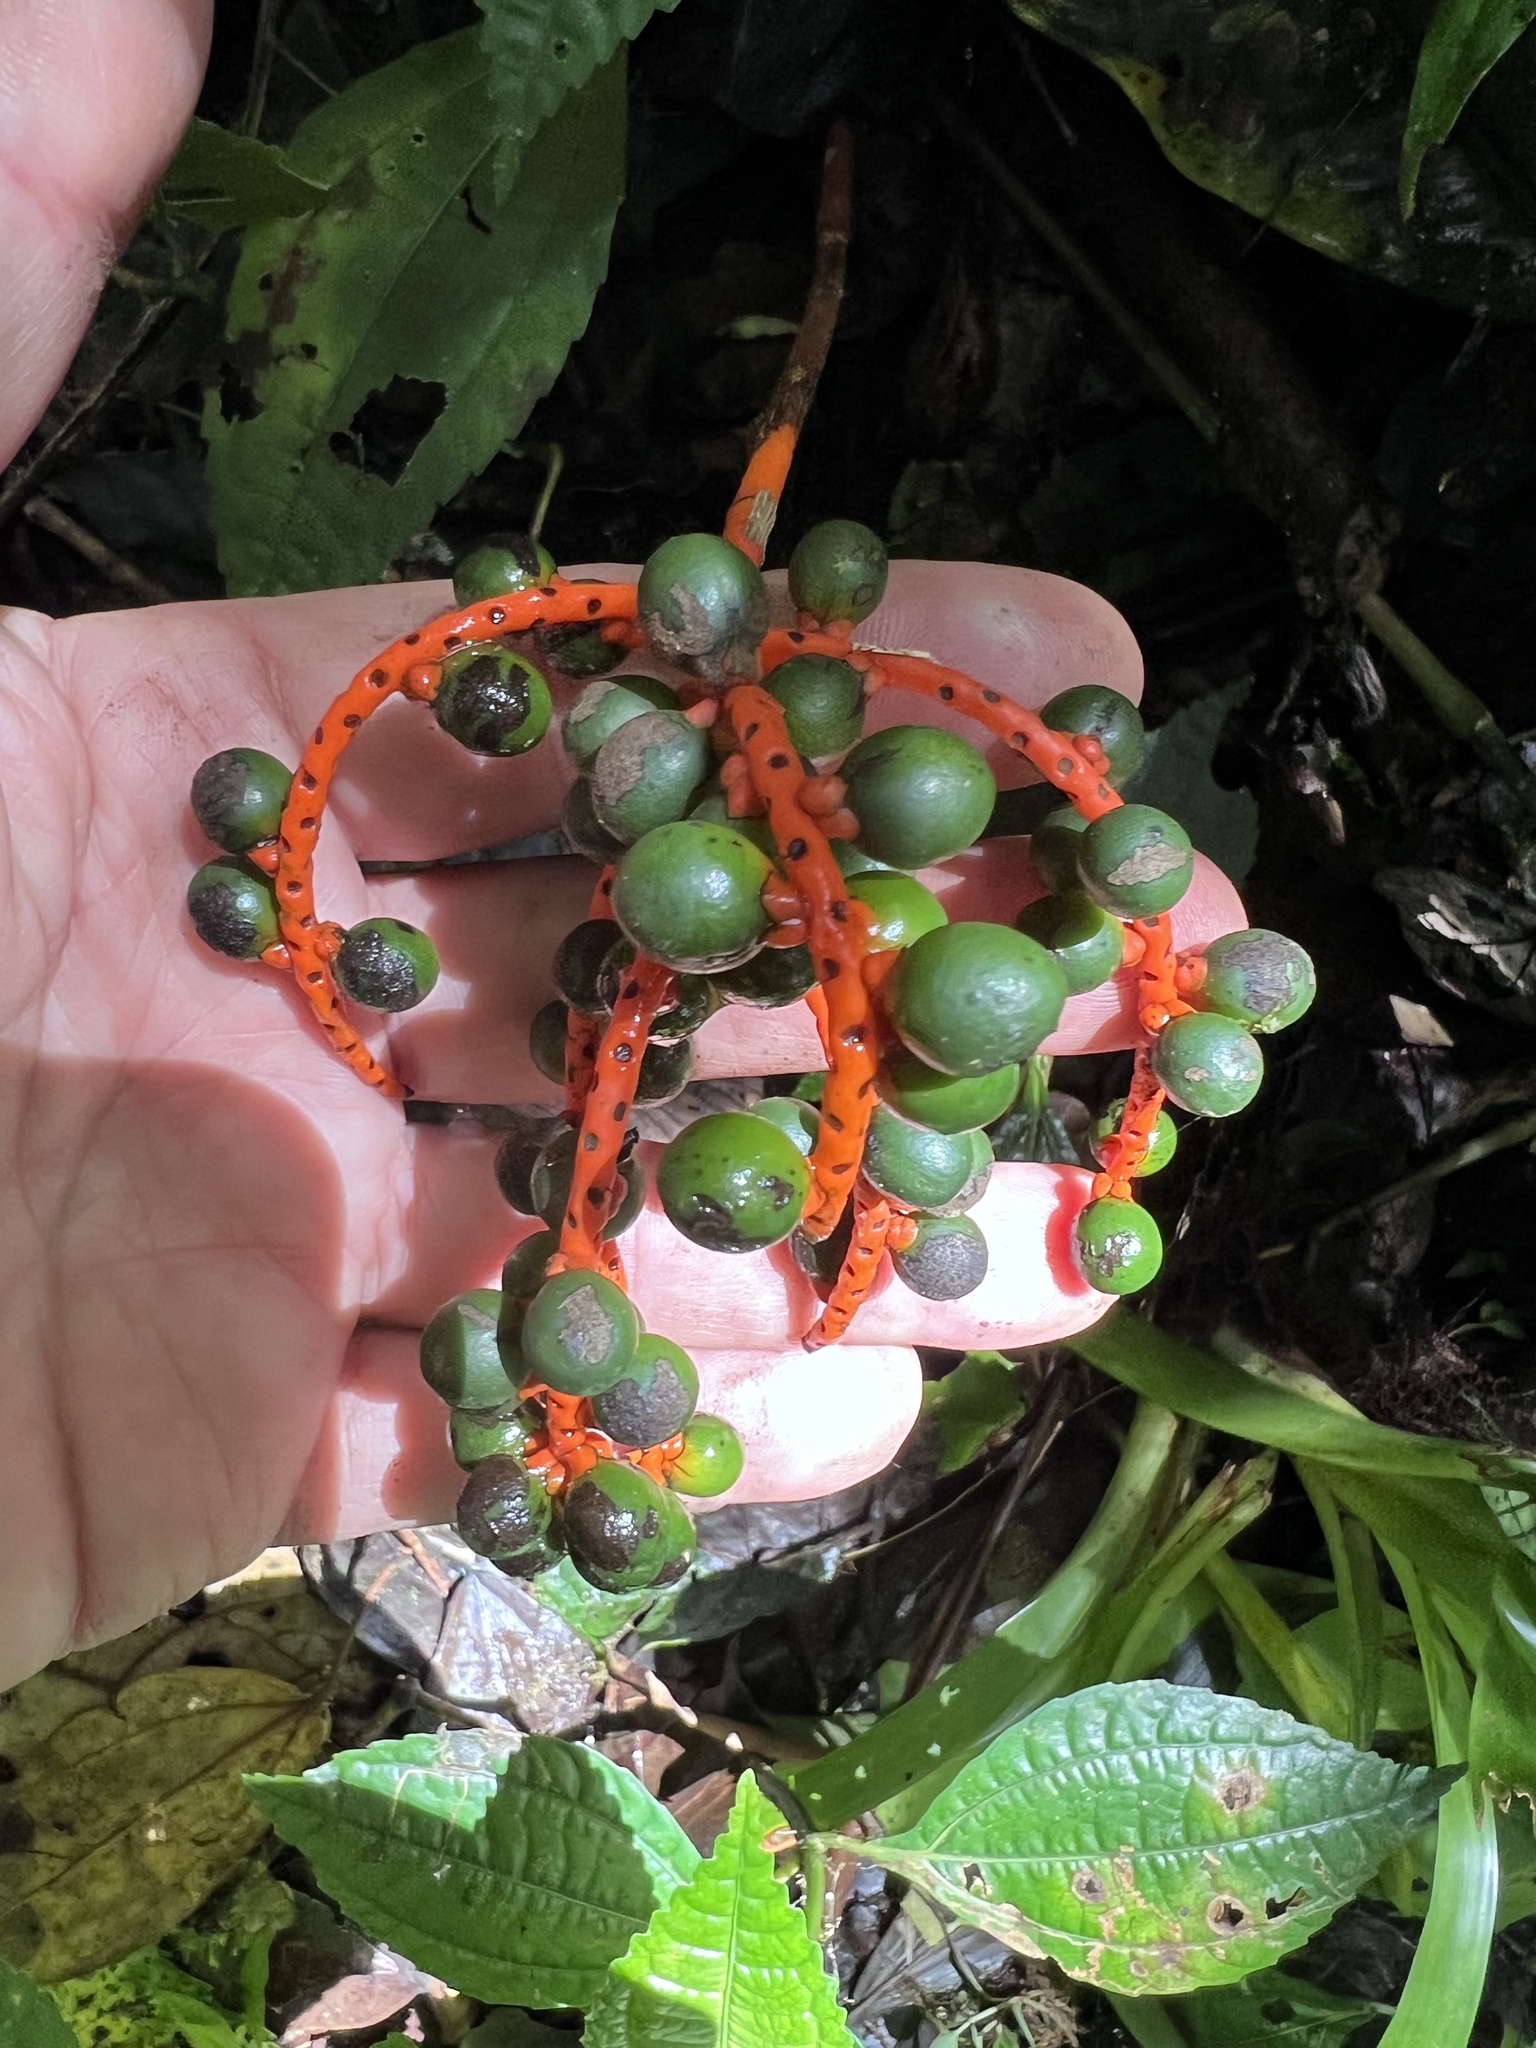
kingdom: Plantae
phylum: Tracheophyta
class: Liliopsida
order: Arecales
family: Arecaceae
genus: Chamaedorea
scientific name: Chamaedorea tepejilote
